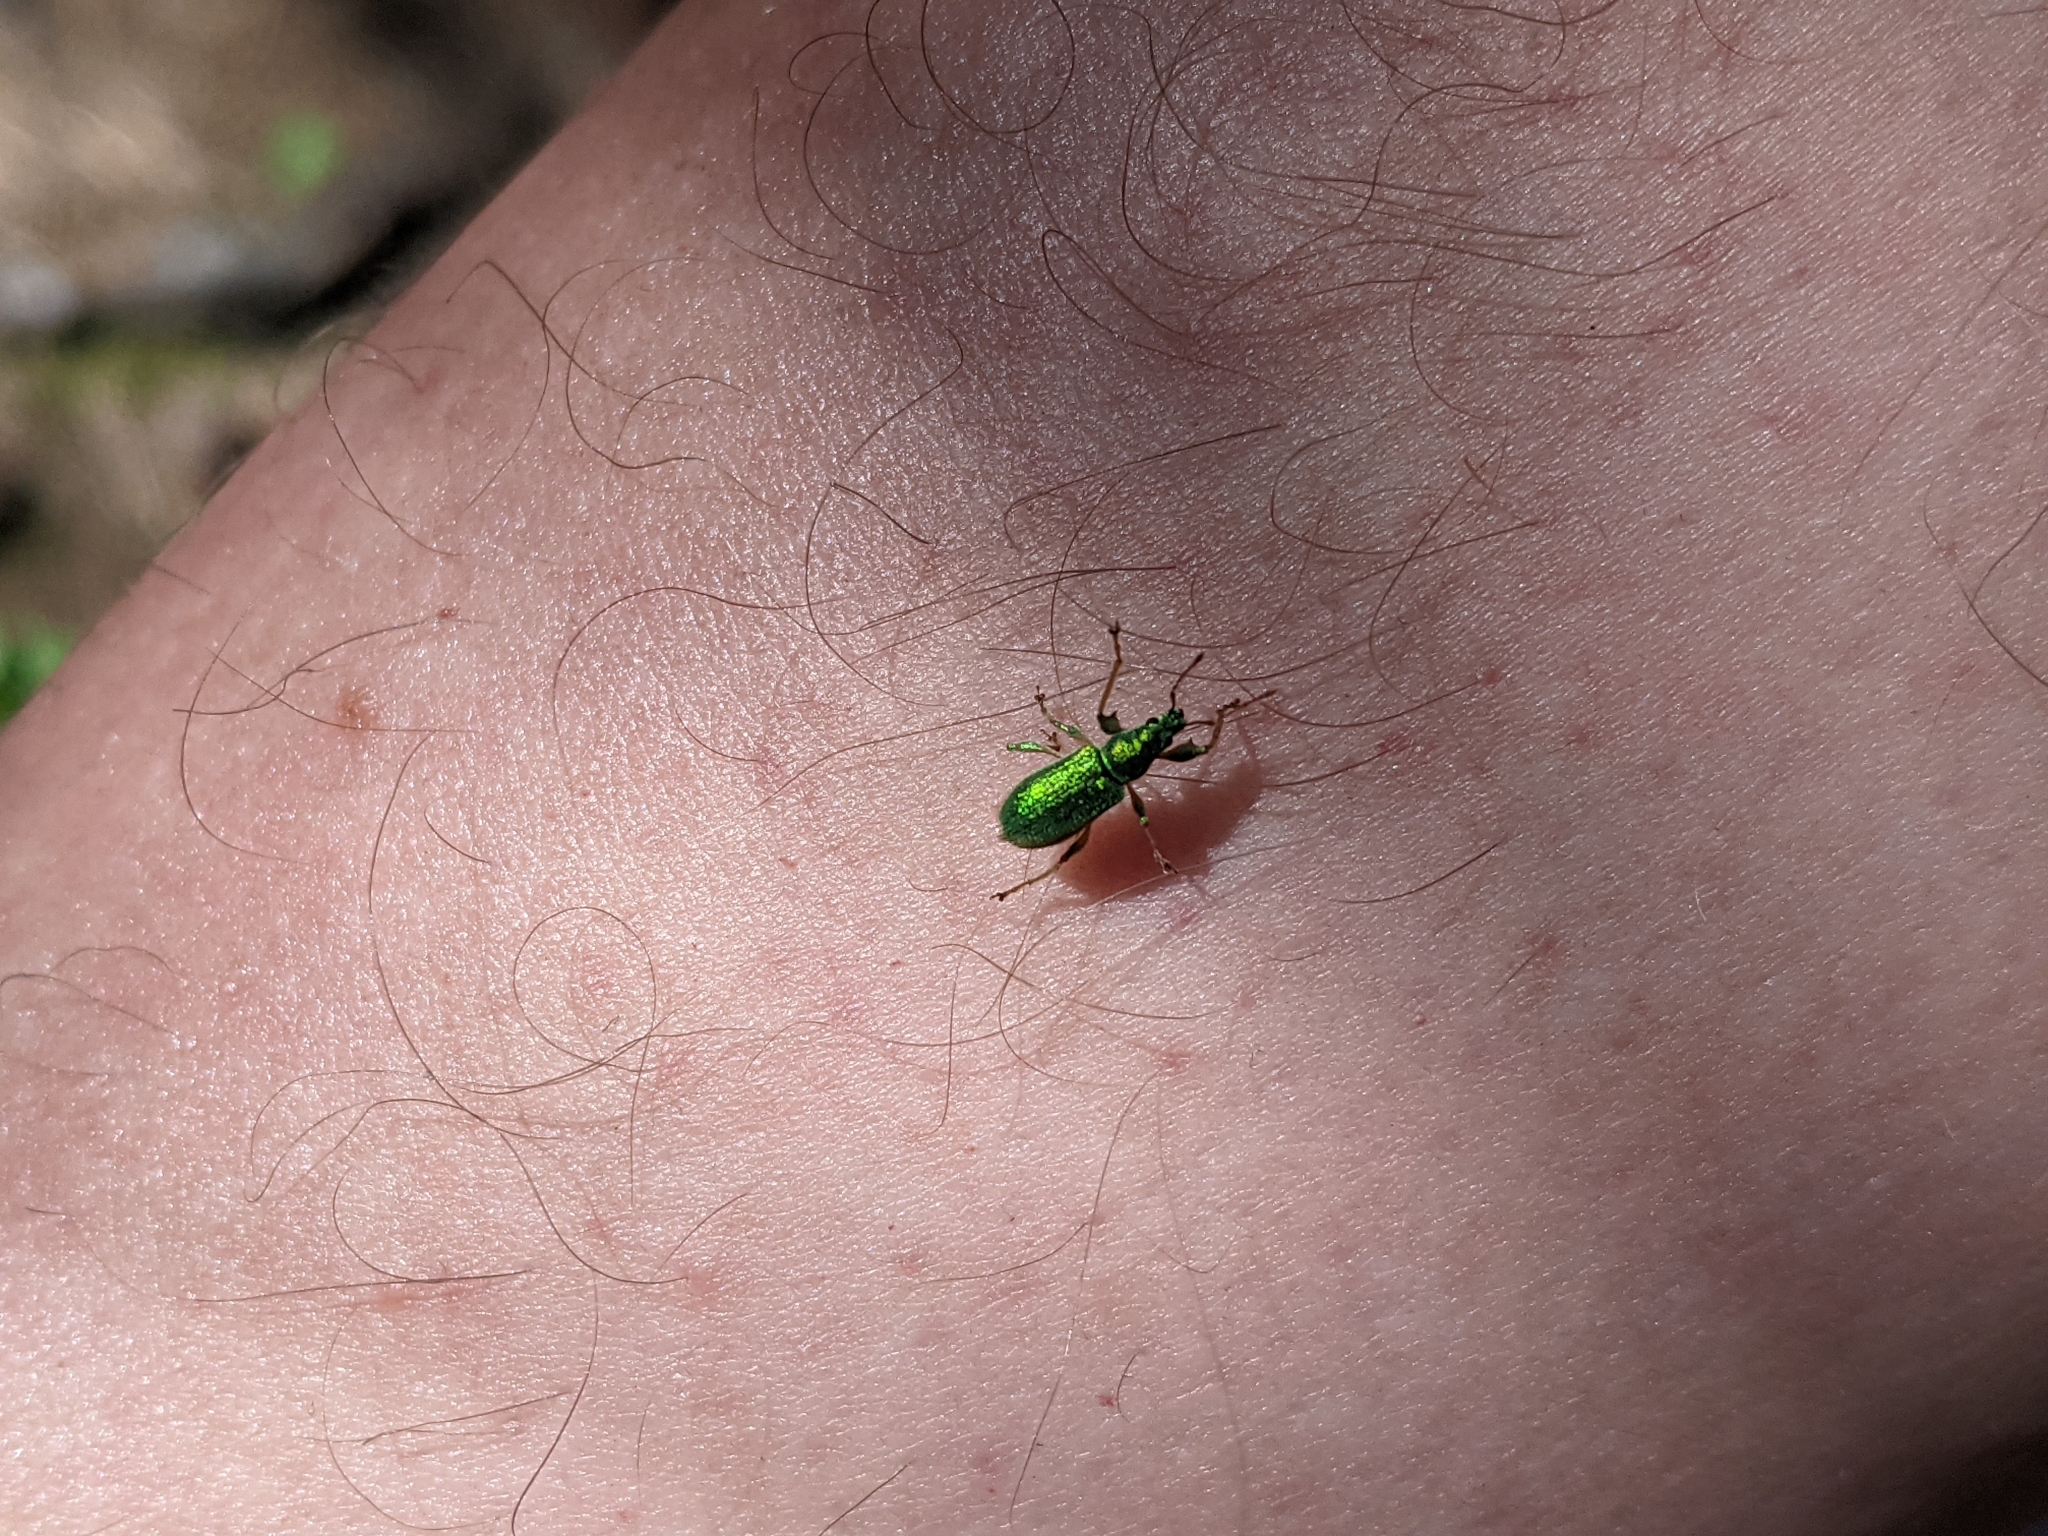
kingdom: Animalia
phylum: Arthropoda
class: Insecta
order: Coleoptera
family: Curculionidae
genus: Phyllobius
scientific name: Phyllobius arborator
